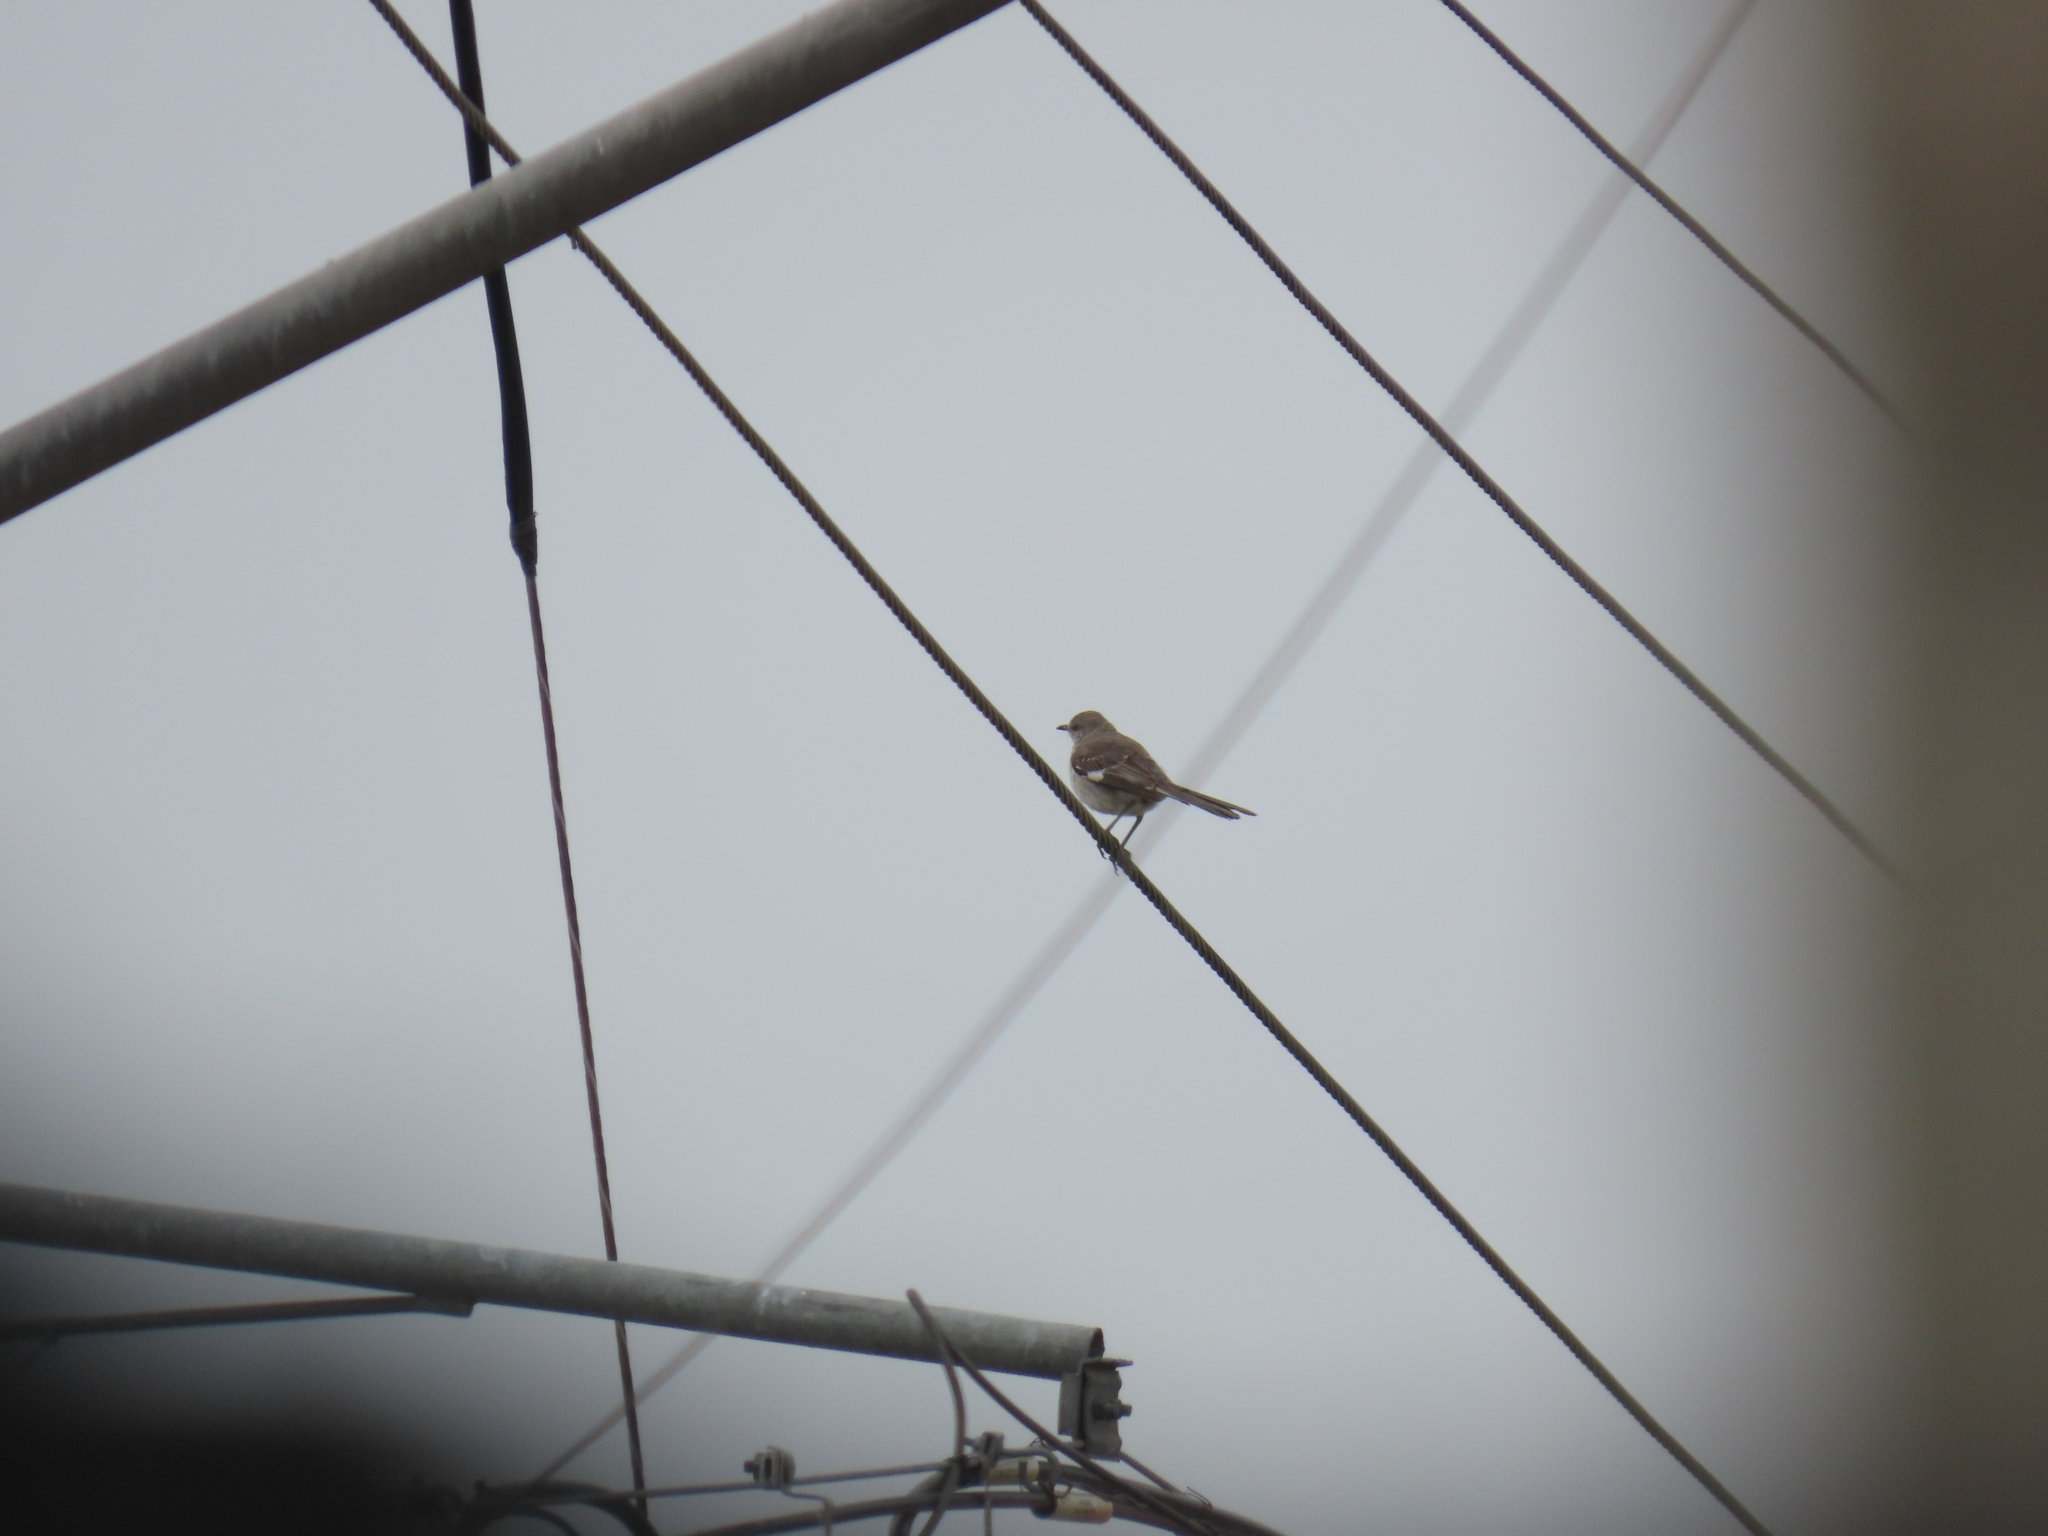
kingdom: Animalia
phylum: Chordata
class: Aves
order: Passeriformes
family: Mimidae
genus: Mimus
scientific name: Mimus polyglottos
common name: Northern mockingbird
